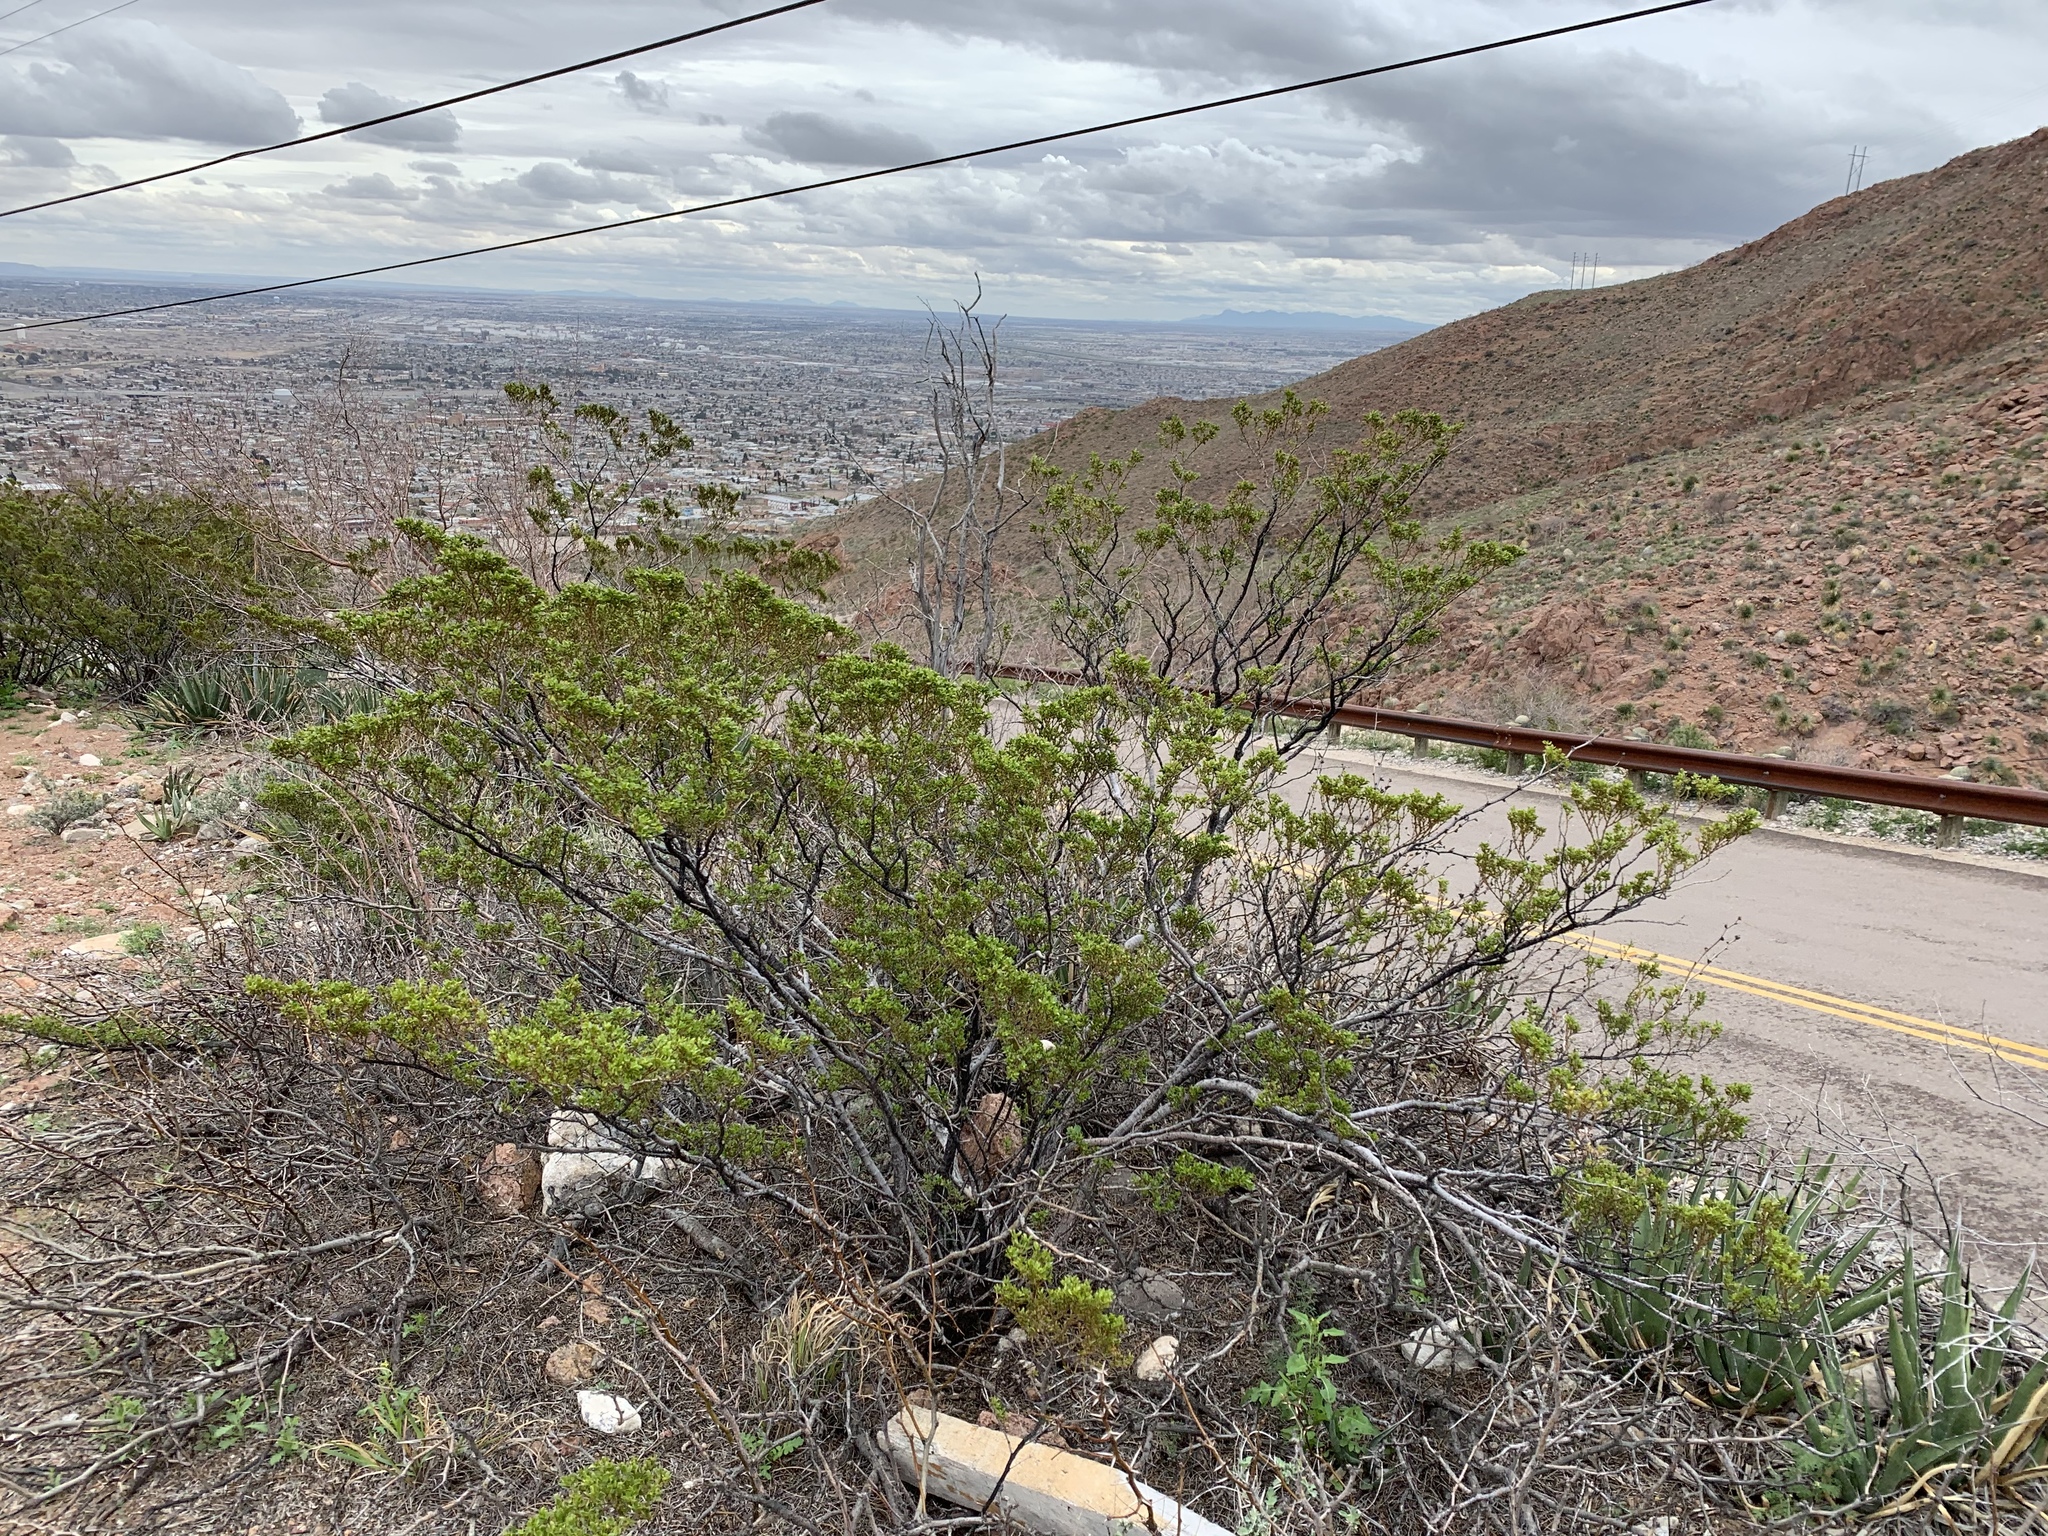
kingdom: Plantae
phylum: Tracheophyta
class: Magnoliopsida
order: Zygophyllales
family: Zygophyllaceae
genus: Larrea
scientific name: Larrea tridentata
